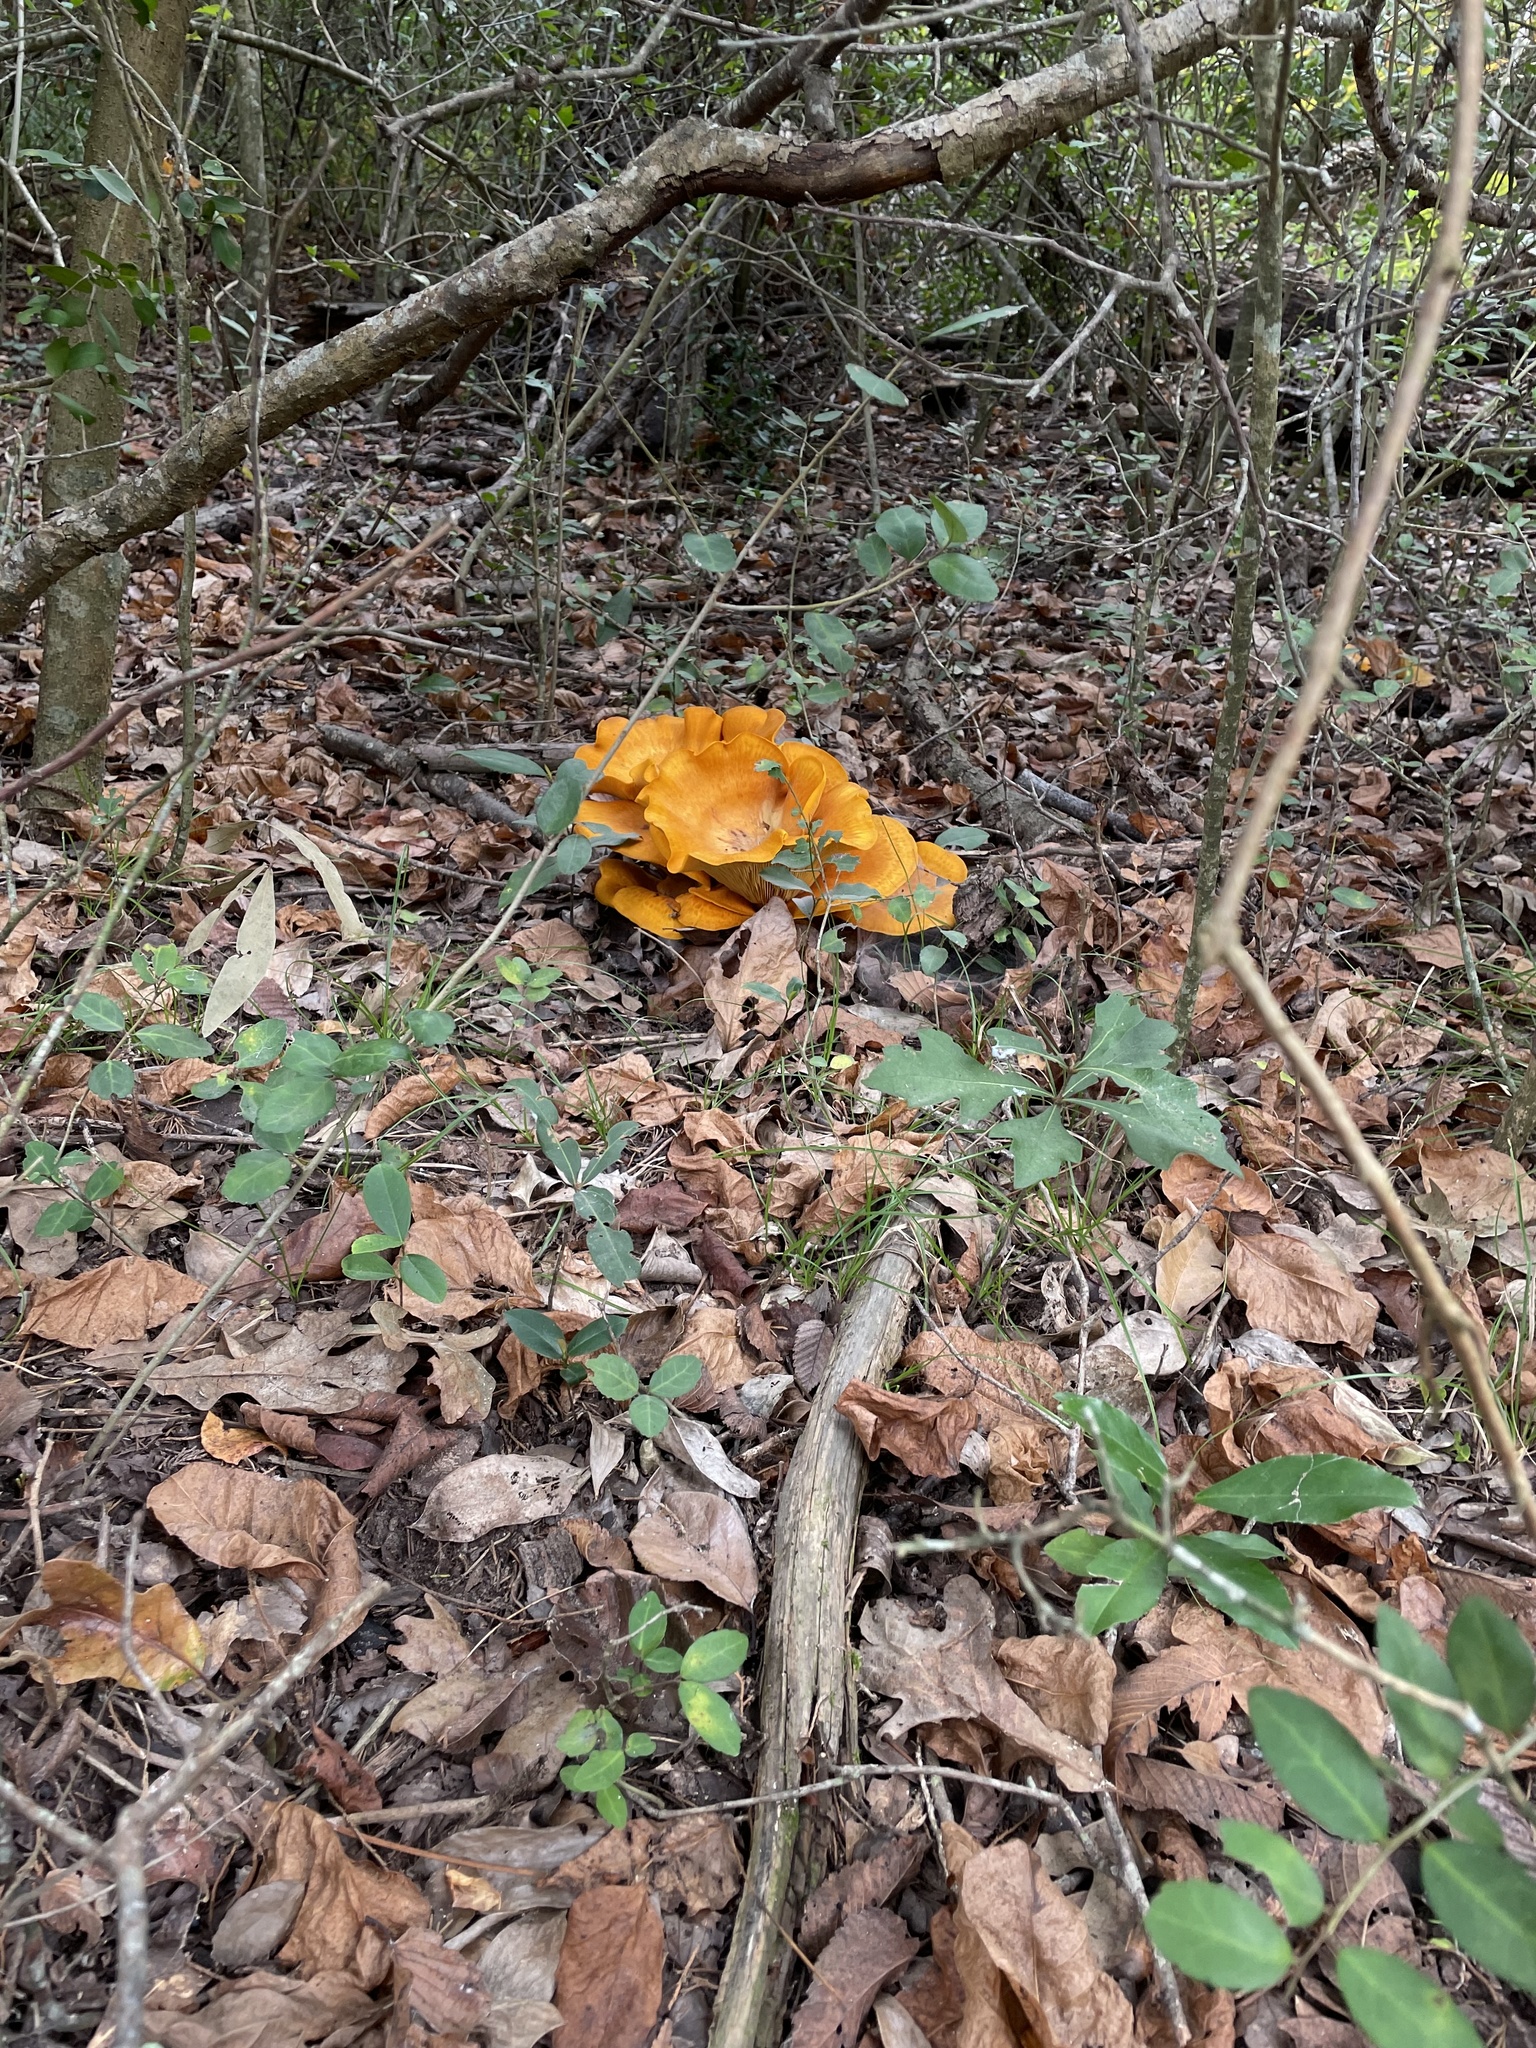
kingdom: Fungi
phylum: Basidiomycota
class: Agaricomycetes
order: Agaricales
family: Omphalotaceae
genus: Omphalotus
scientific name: Omphalotus subilludens
